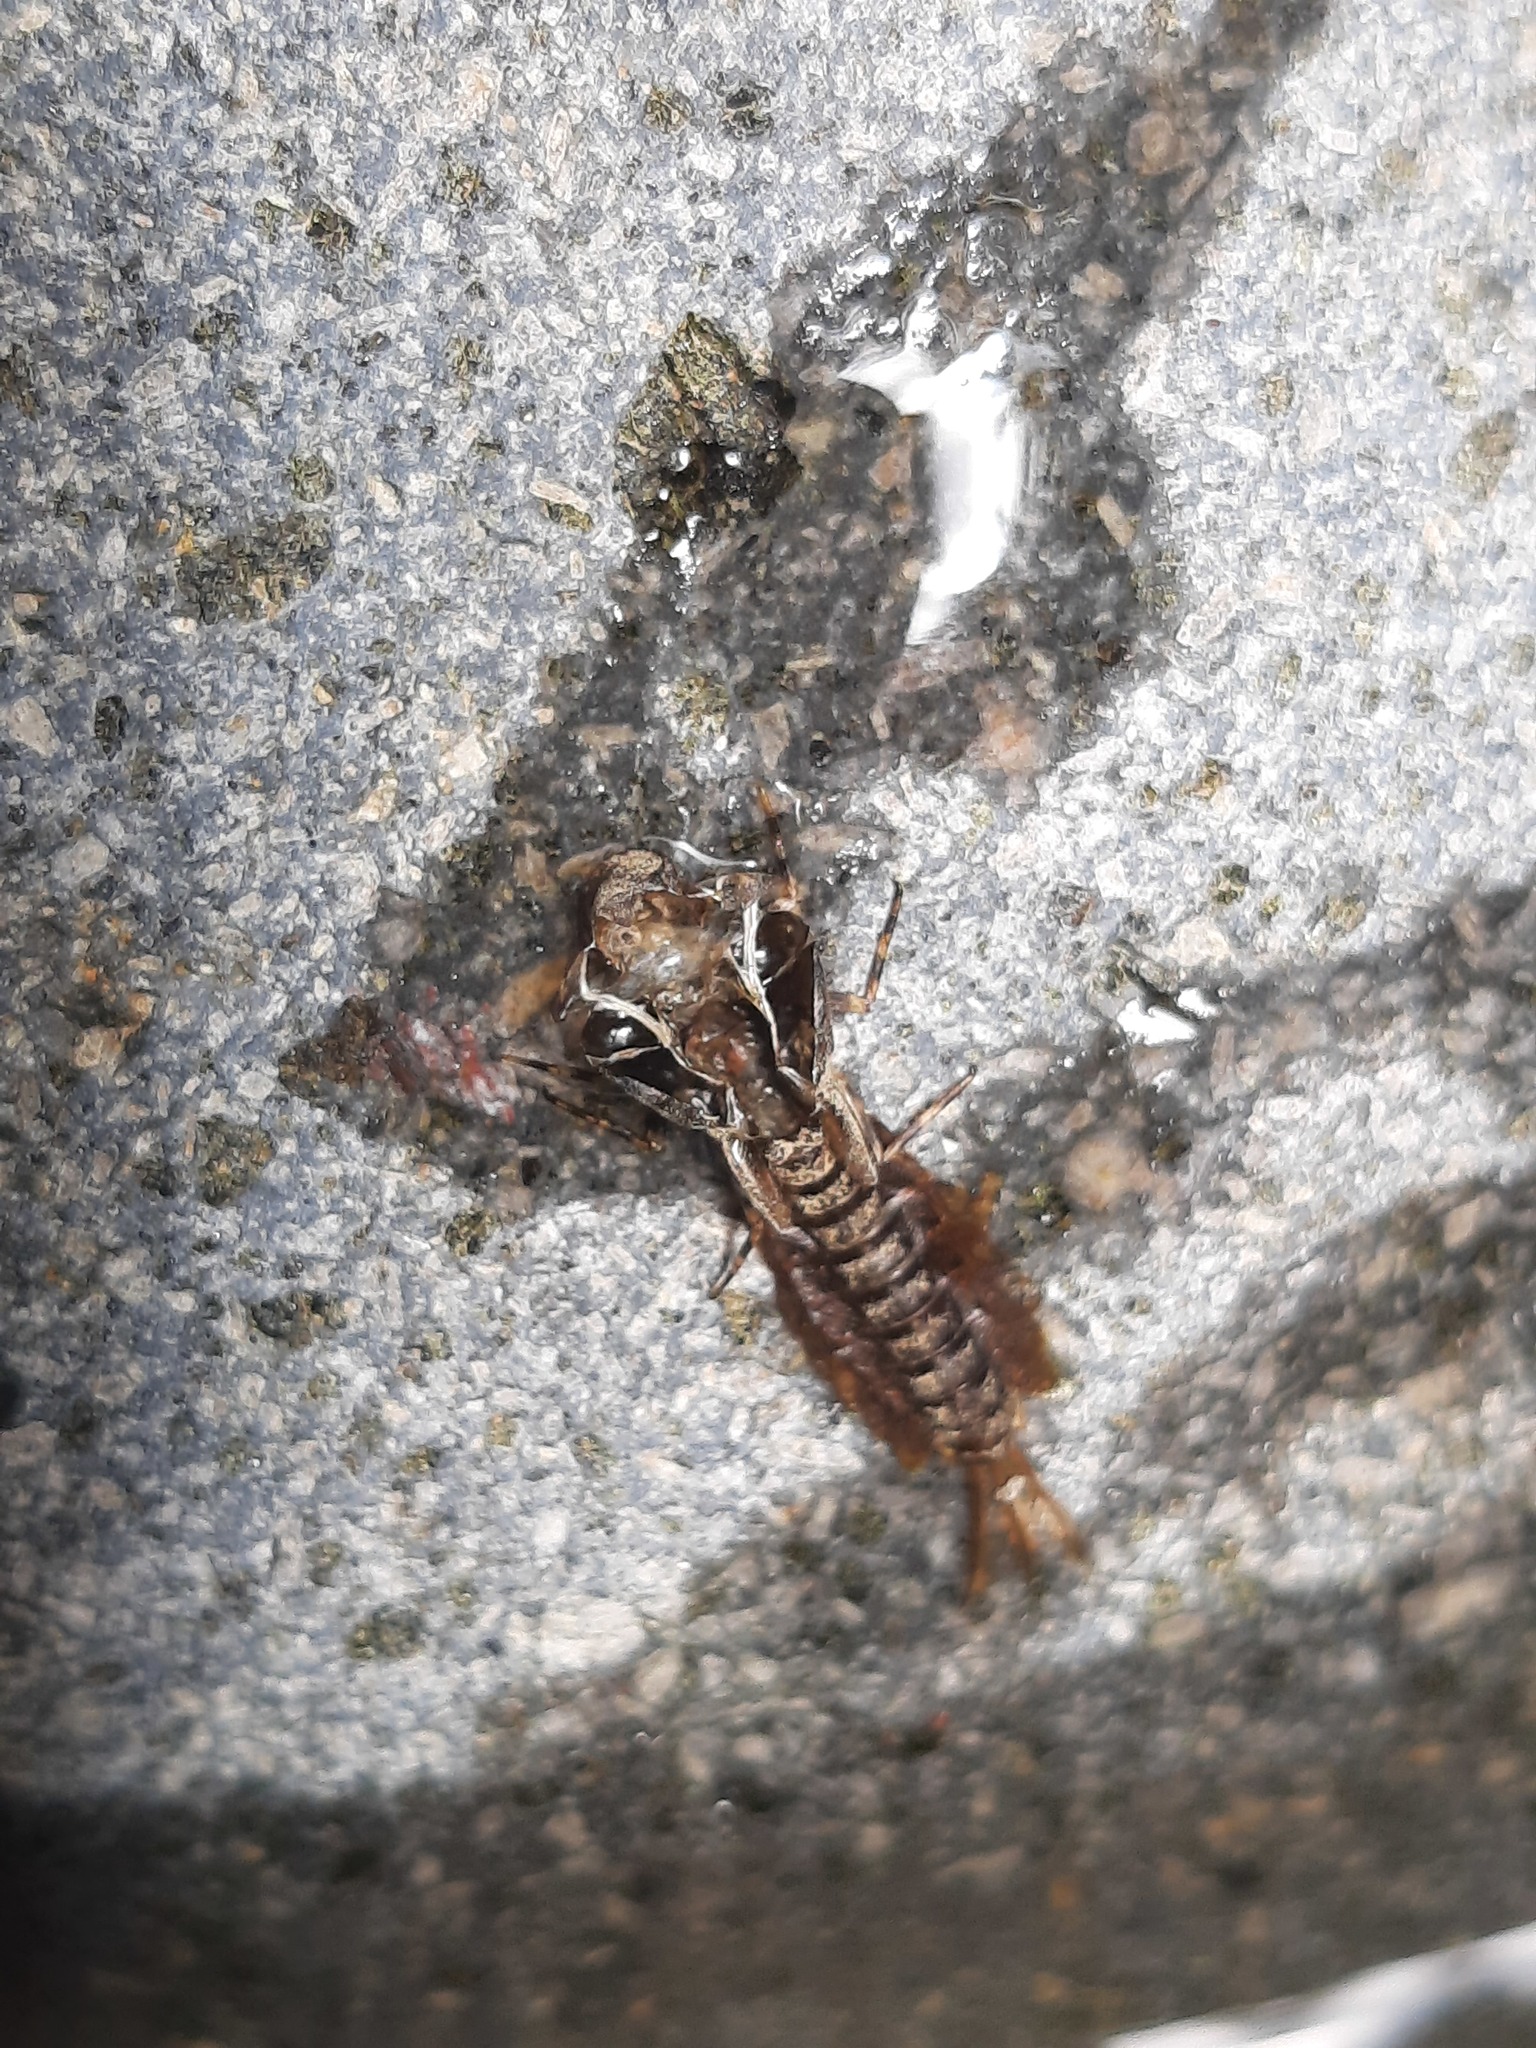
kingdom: Animalia
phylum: Arthropoda
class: Insecta
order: Ephemeroptera
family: Ameletopsidae
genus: Ameletopsis
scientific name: Ameletopsis perscitus
